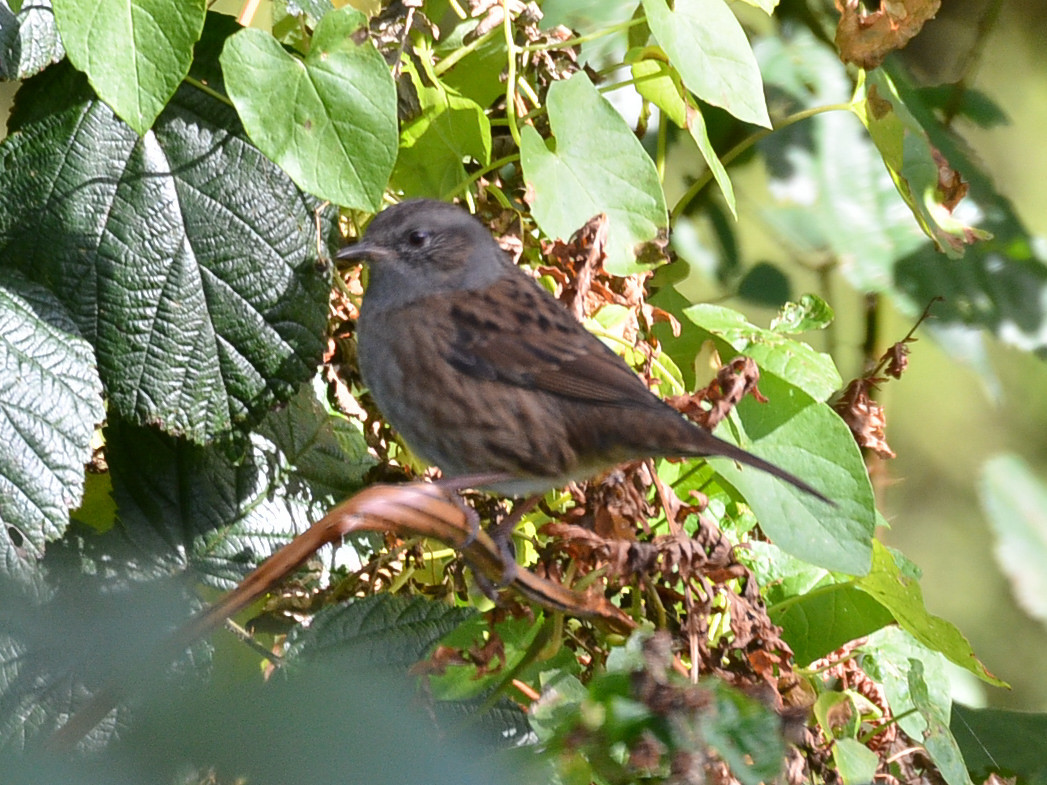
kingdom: Animalia
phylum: Chordata
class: Aves
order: Passeriformes
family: Prunellidae
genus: Prunella
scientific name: Prunella modularis
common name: Dunnock
